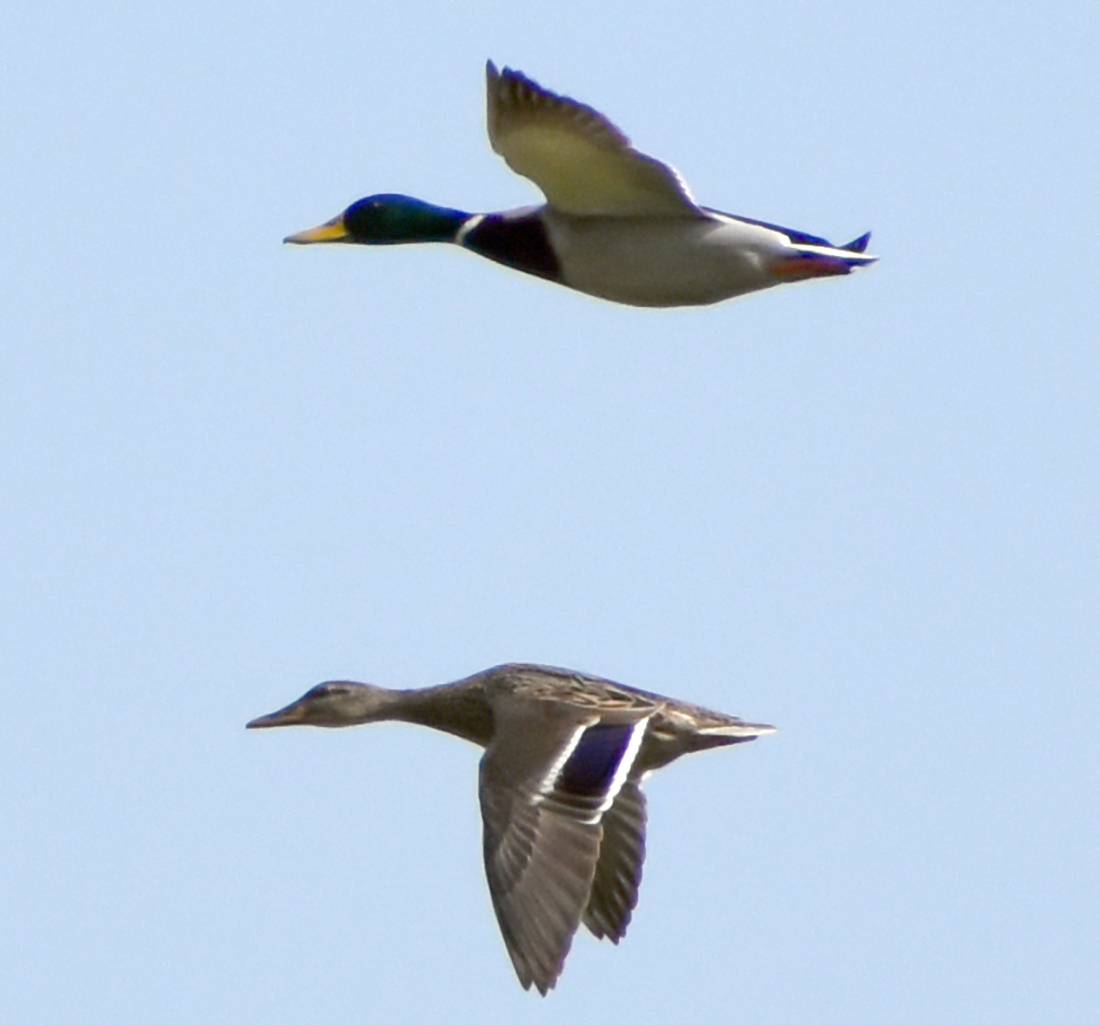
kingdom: Animalia
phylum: Chordata
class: Aves
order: Anseriformes
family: Anatidae
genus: Anas
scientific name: Anas platyrhynchos
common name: Mallard
